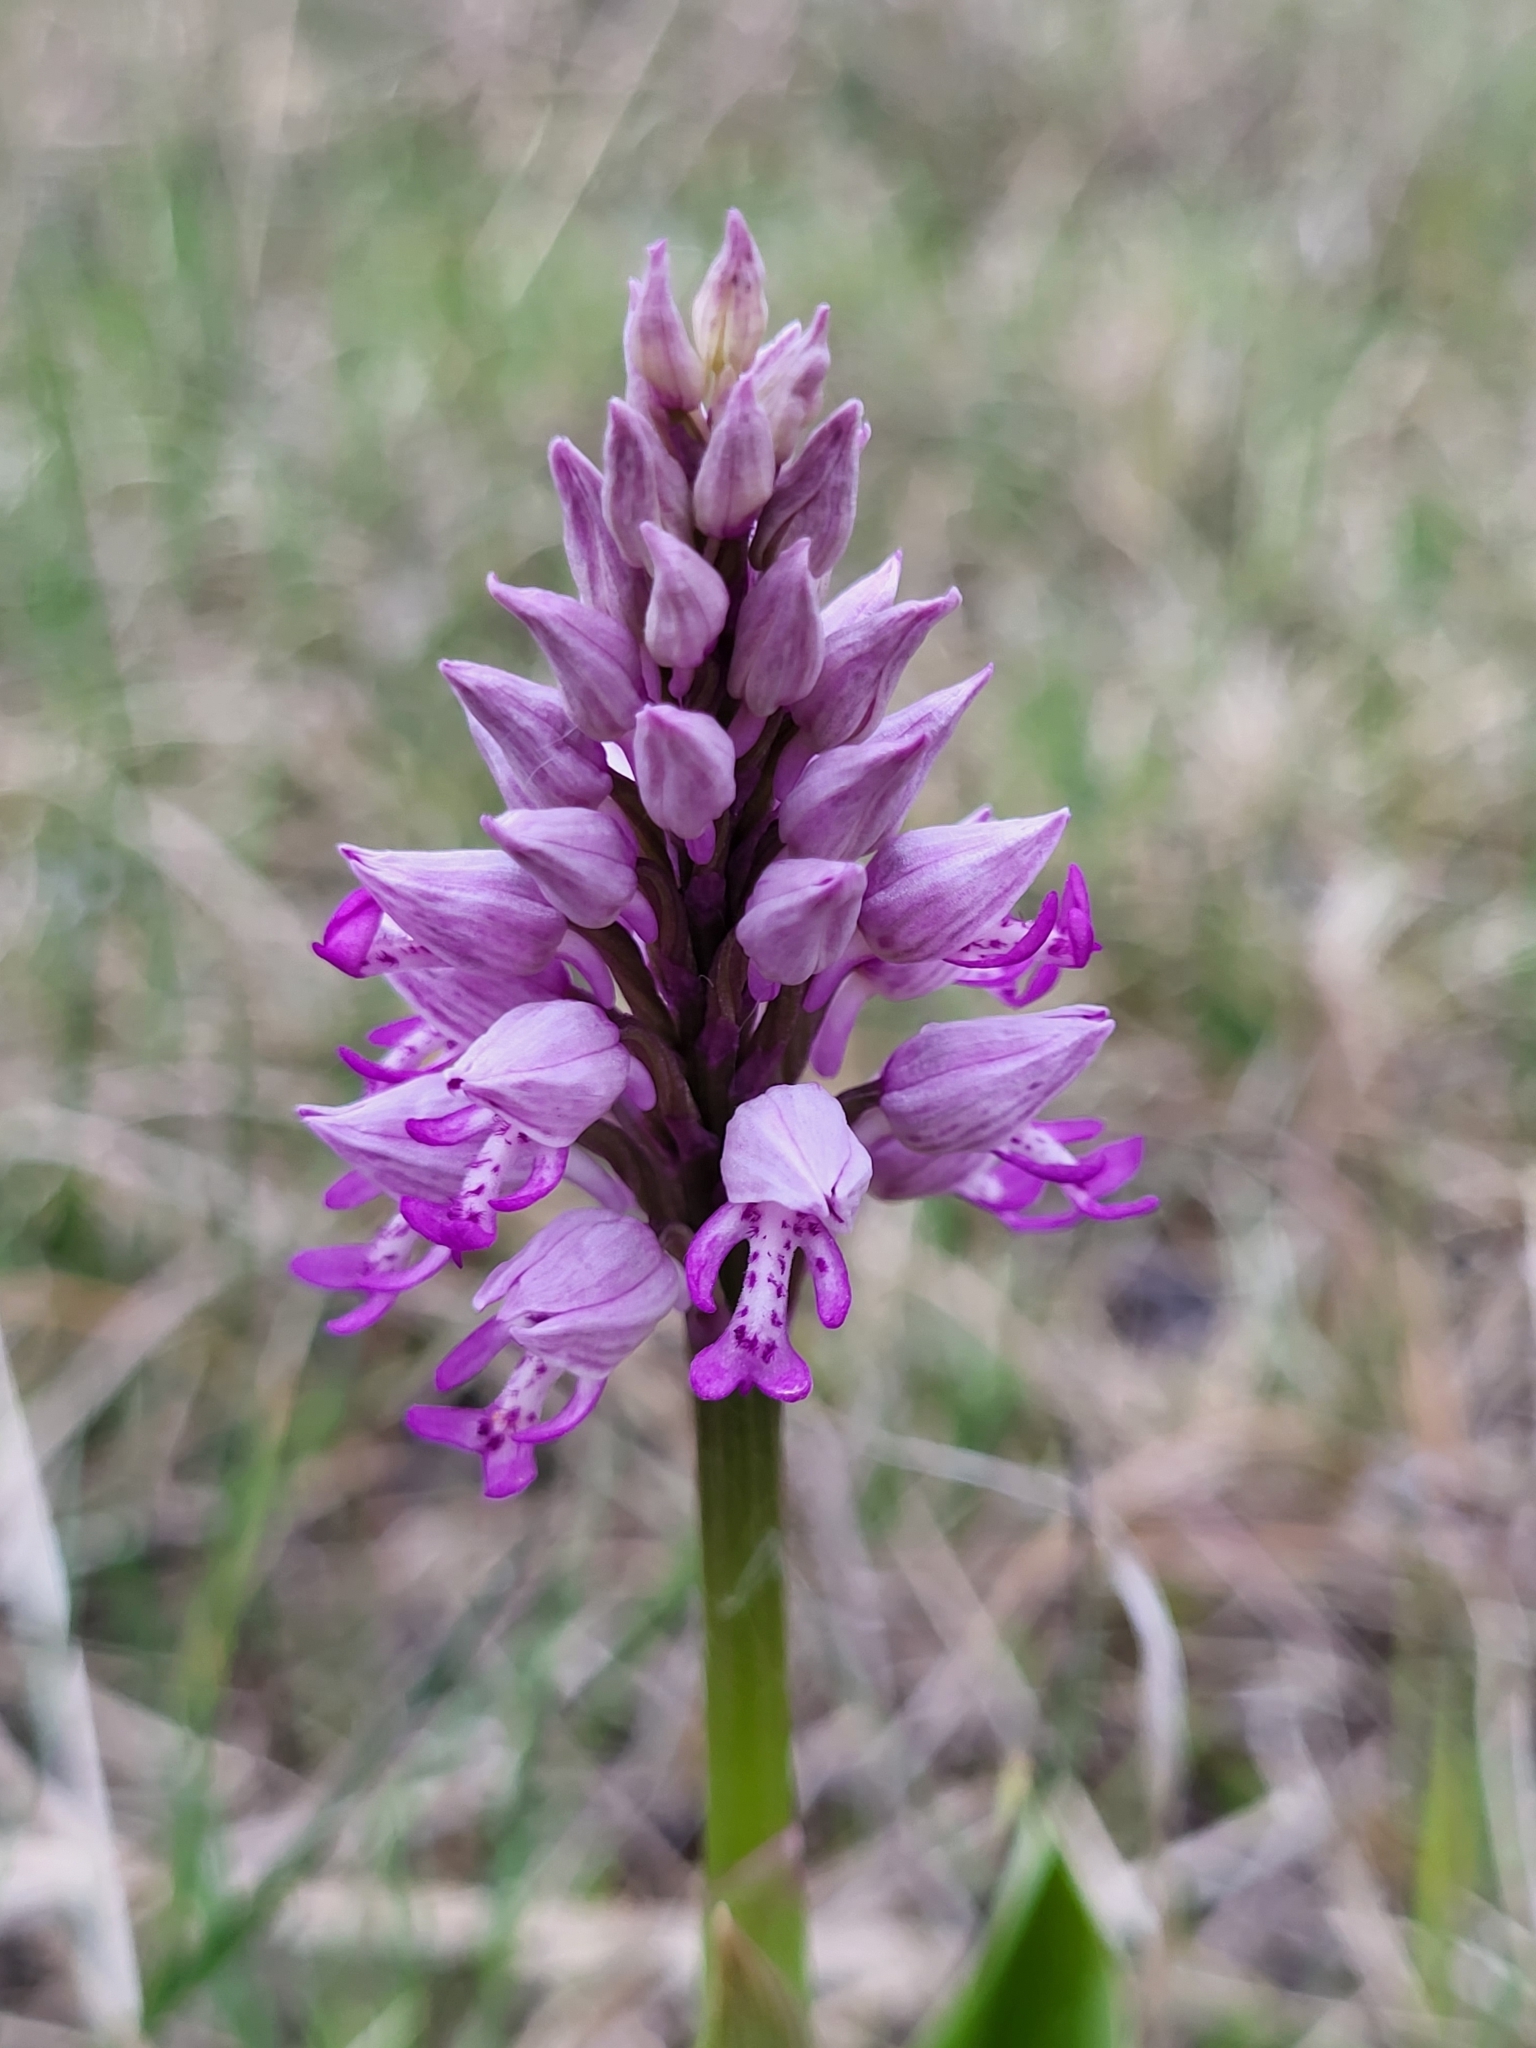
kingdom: Plantae
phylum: Tracheophyta
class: Liliopsida
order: Asparagales
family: Orchidaceae
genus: Orchis
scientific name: Orchis militaris
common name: Military orchid
